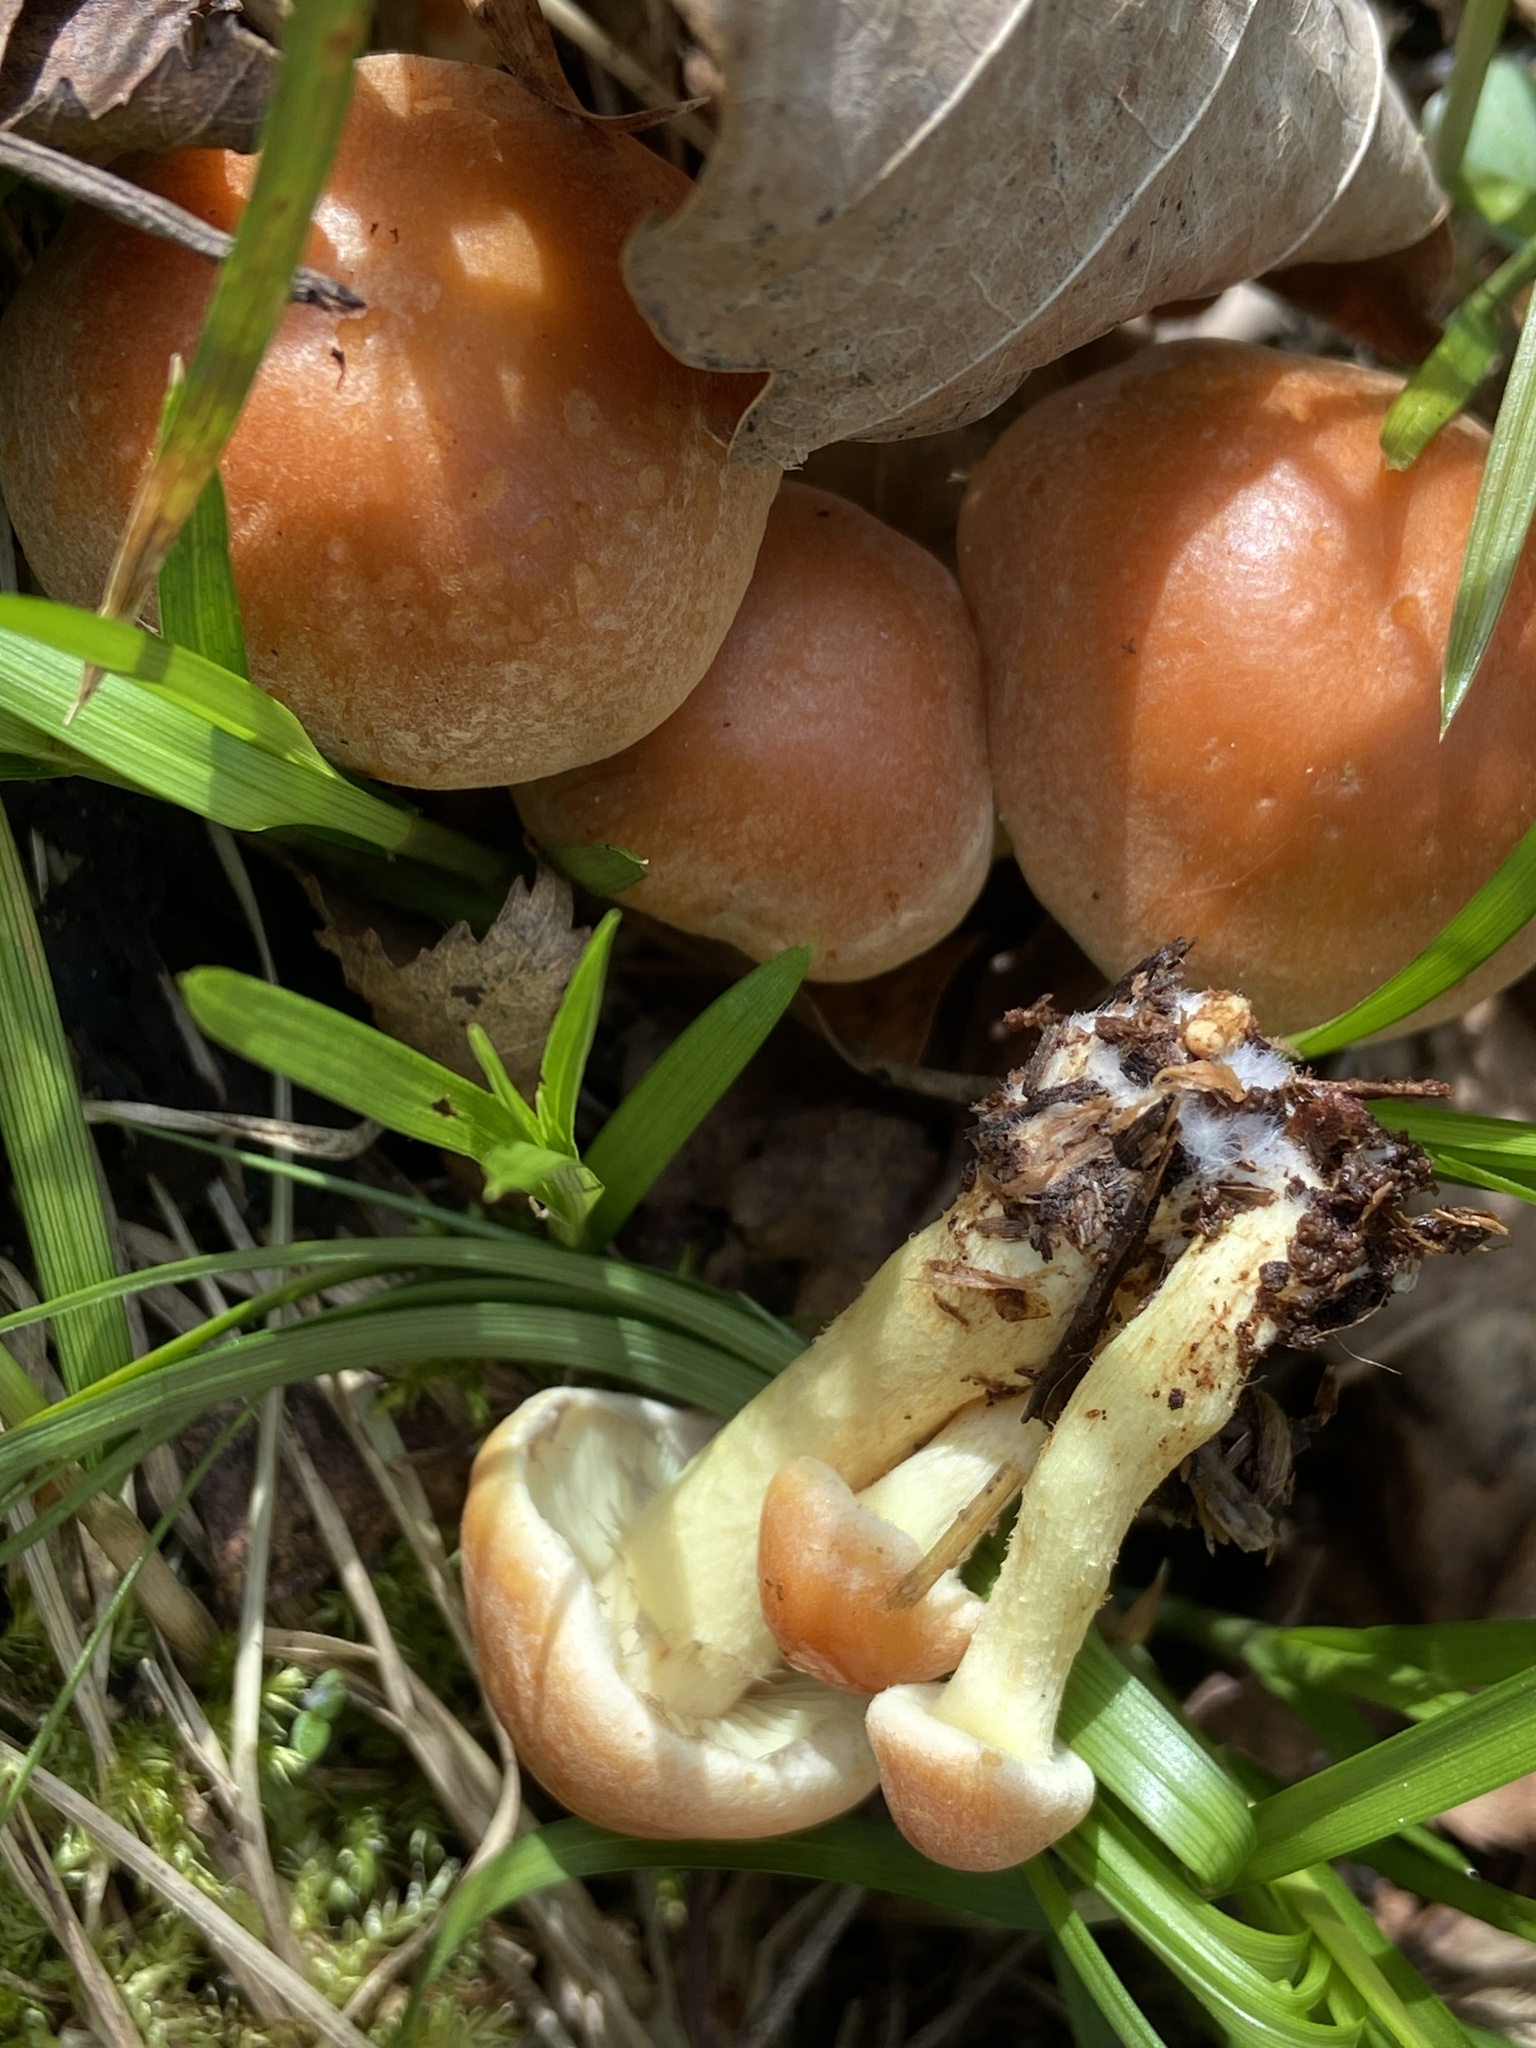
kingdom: Fungi
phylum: Basidiomycota
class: Agaricomycetes
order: Agaricales
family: Strophariaceae
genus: Hypholoma
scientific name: Hypholoma fasciculare
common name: Sulphur tuft
